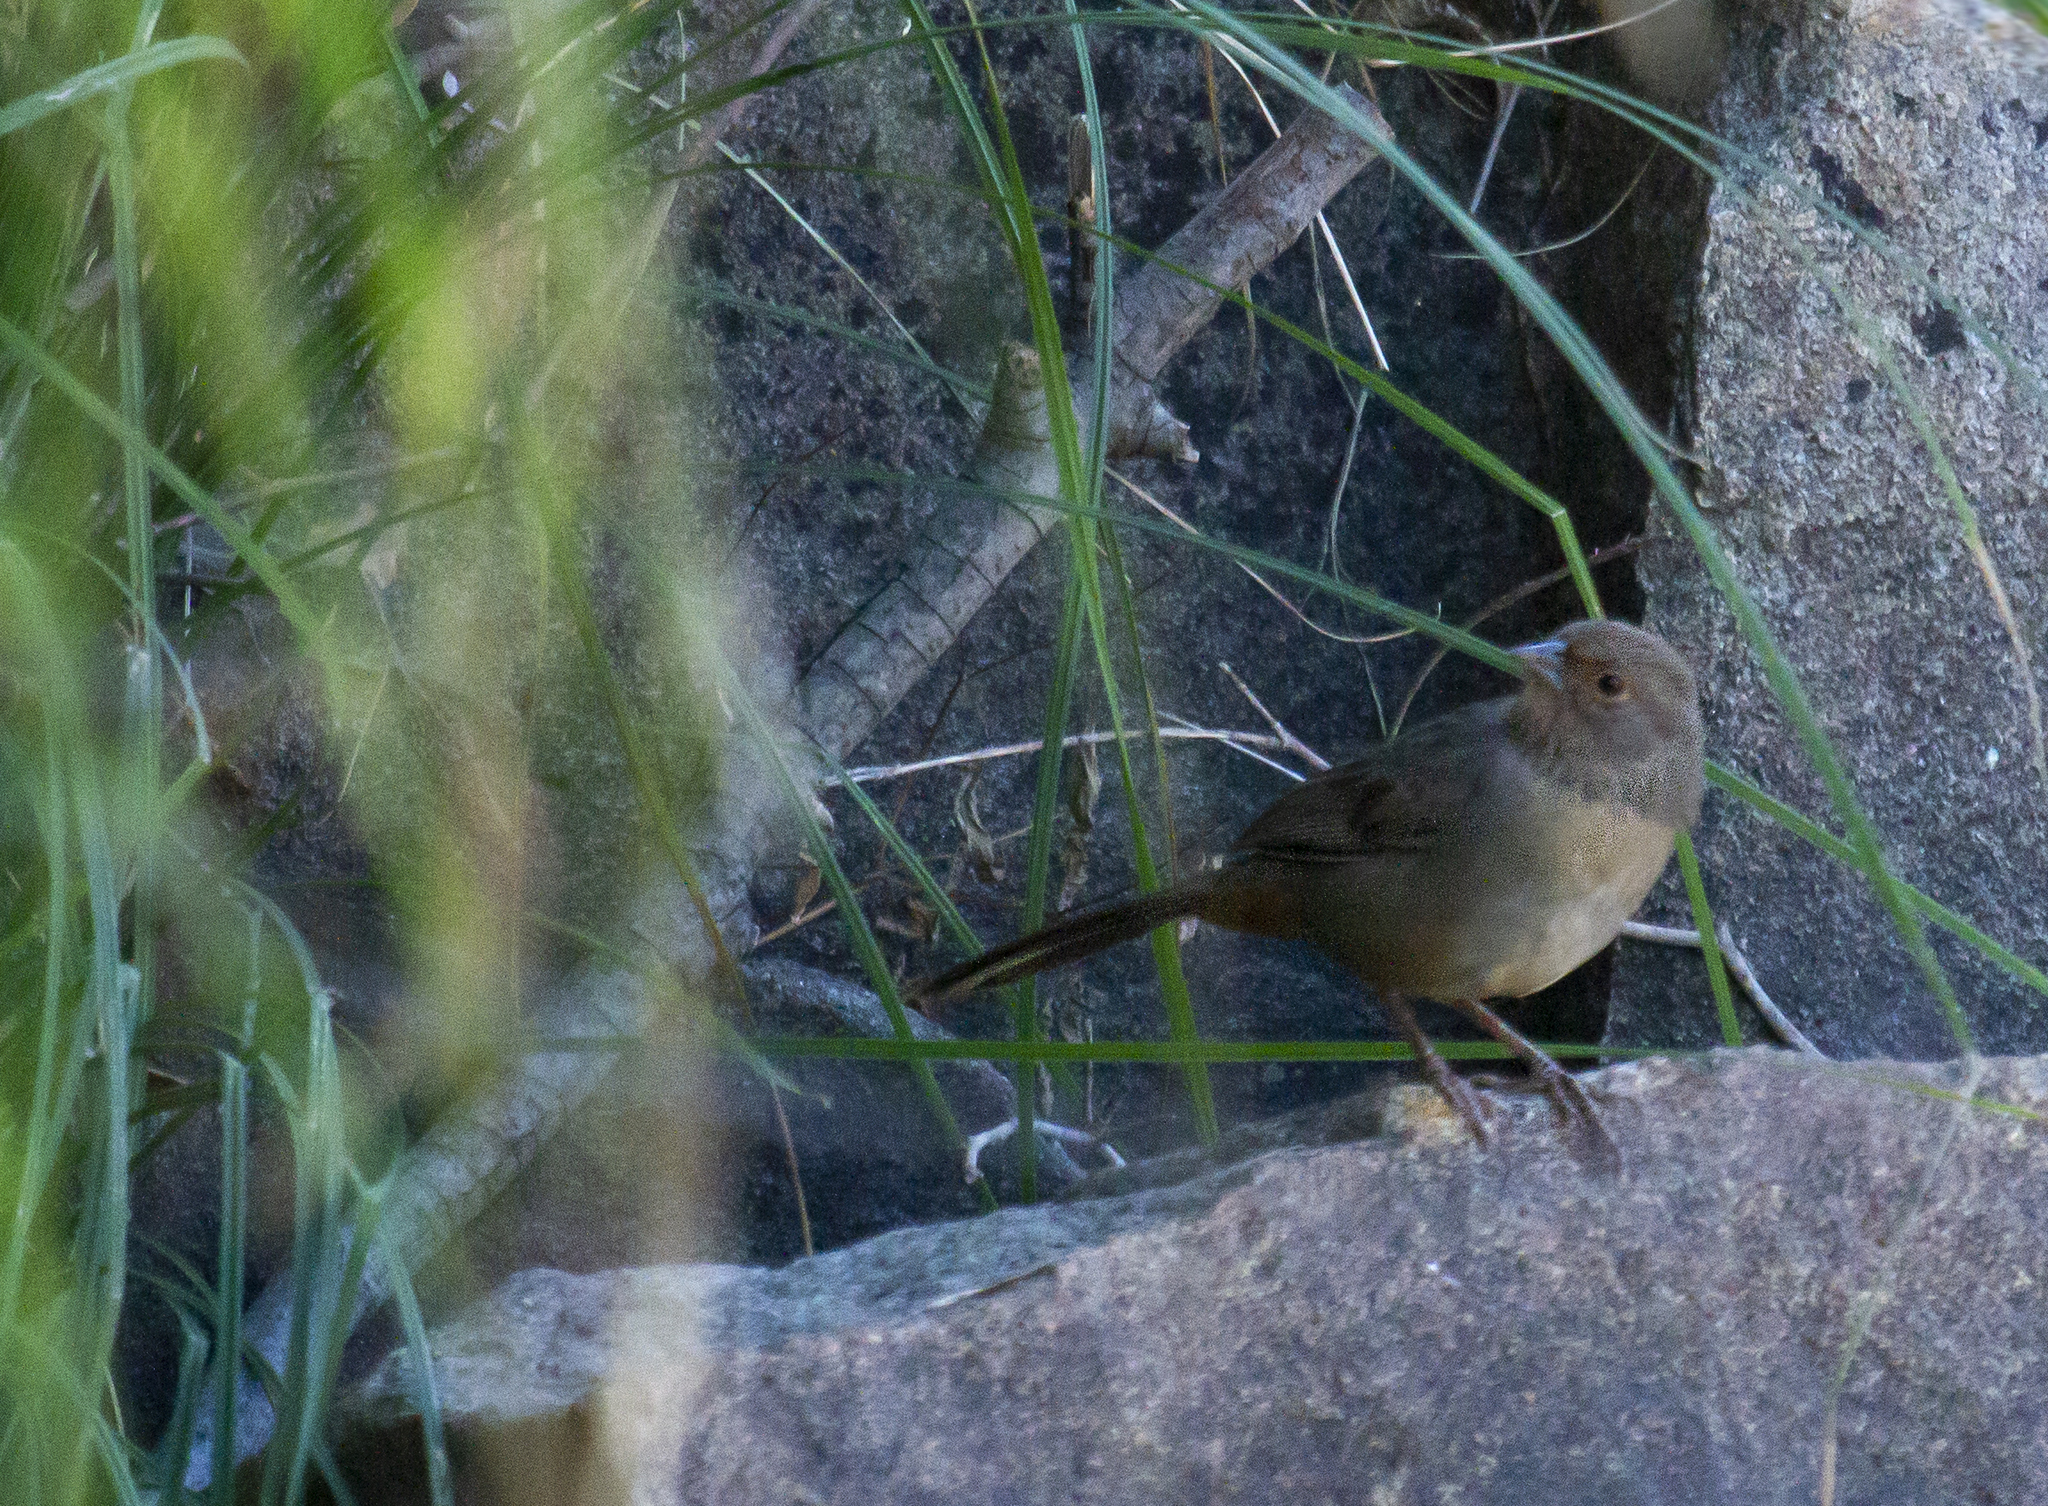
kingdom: Animalia
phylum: Chordata
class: Aves
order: Passeriformes
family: Passerellidae
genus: Melozone
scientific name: Melozone crissalis
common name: California towhee
